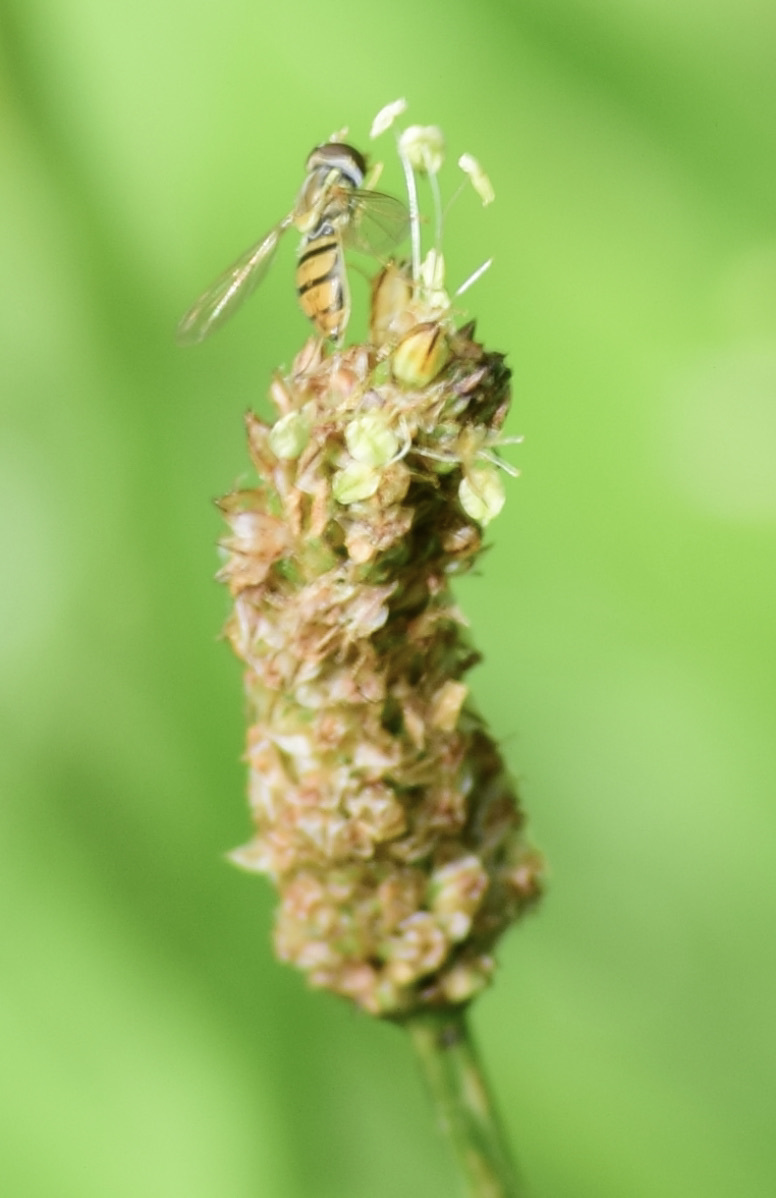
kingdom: Animalia
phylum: Arthropoda
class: Insecta
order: Diptera
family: Syrphidae
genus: Toxomerus
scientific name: Toxomerus marginatus
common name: Syrphid fly
